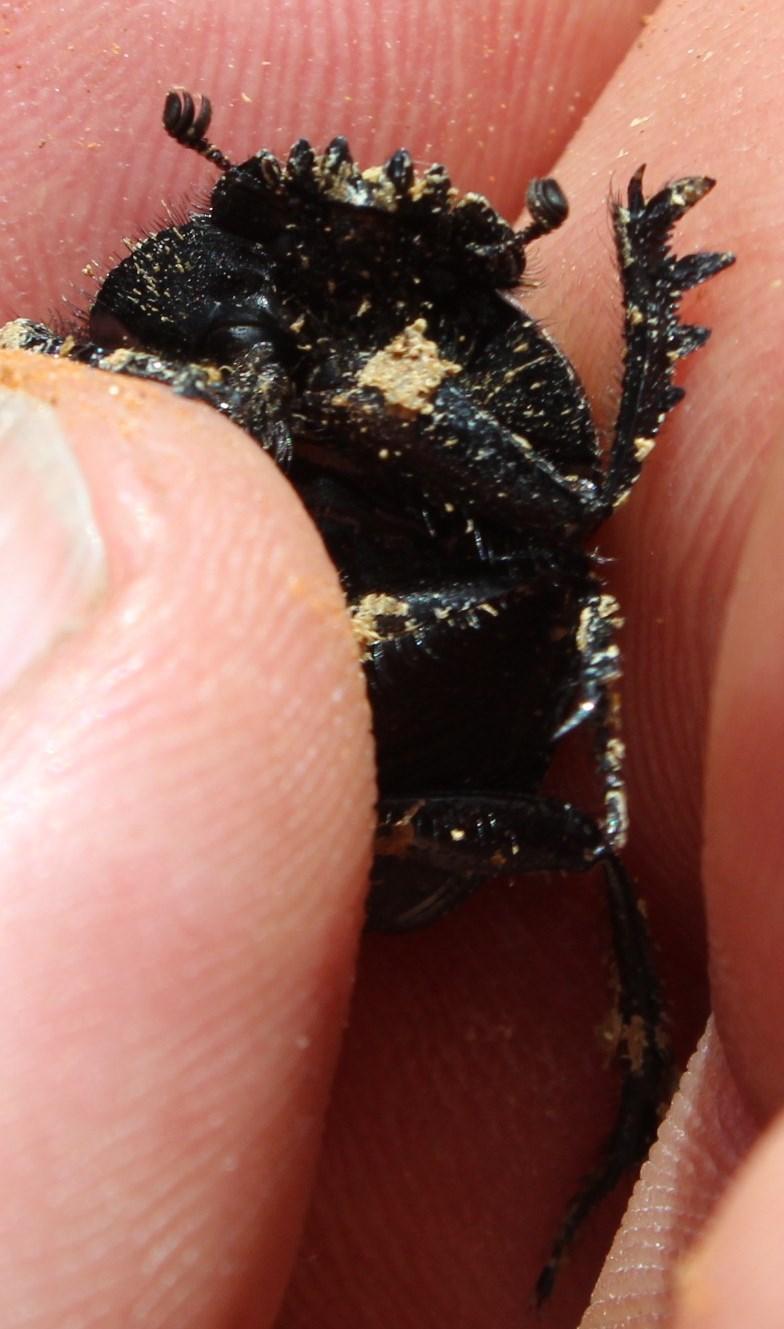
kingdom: Animalia
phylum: Arthropoda
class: Insecta
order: Coleoptera
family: Scarabaeidae
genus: Kheper
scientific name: Kheper bonellii
